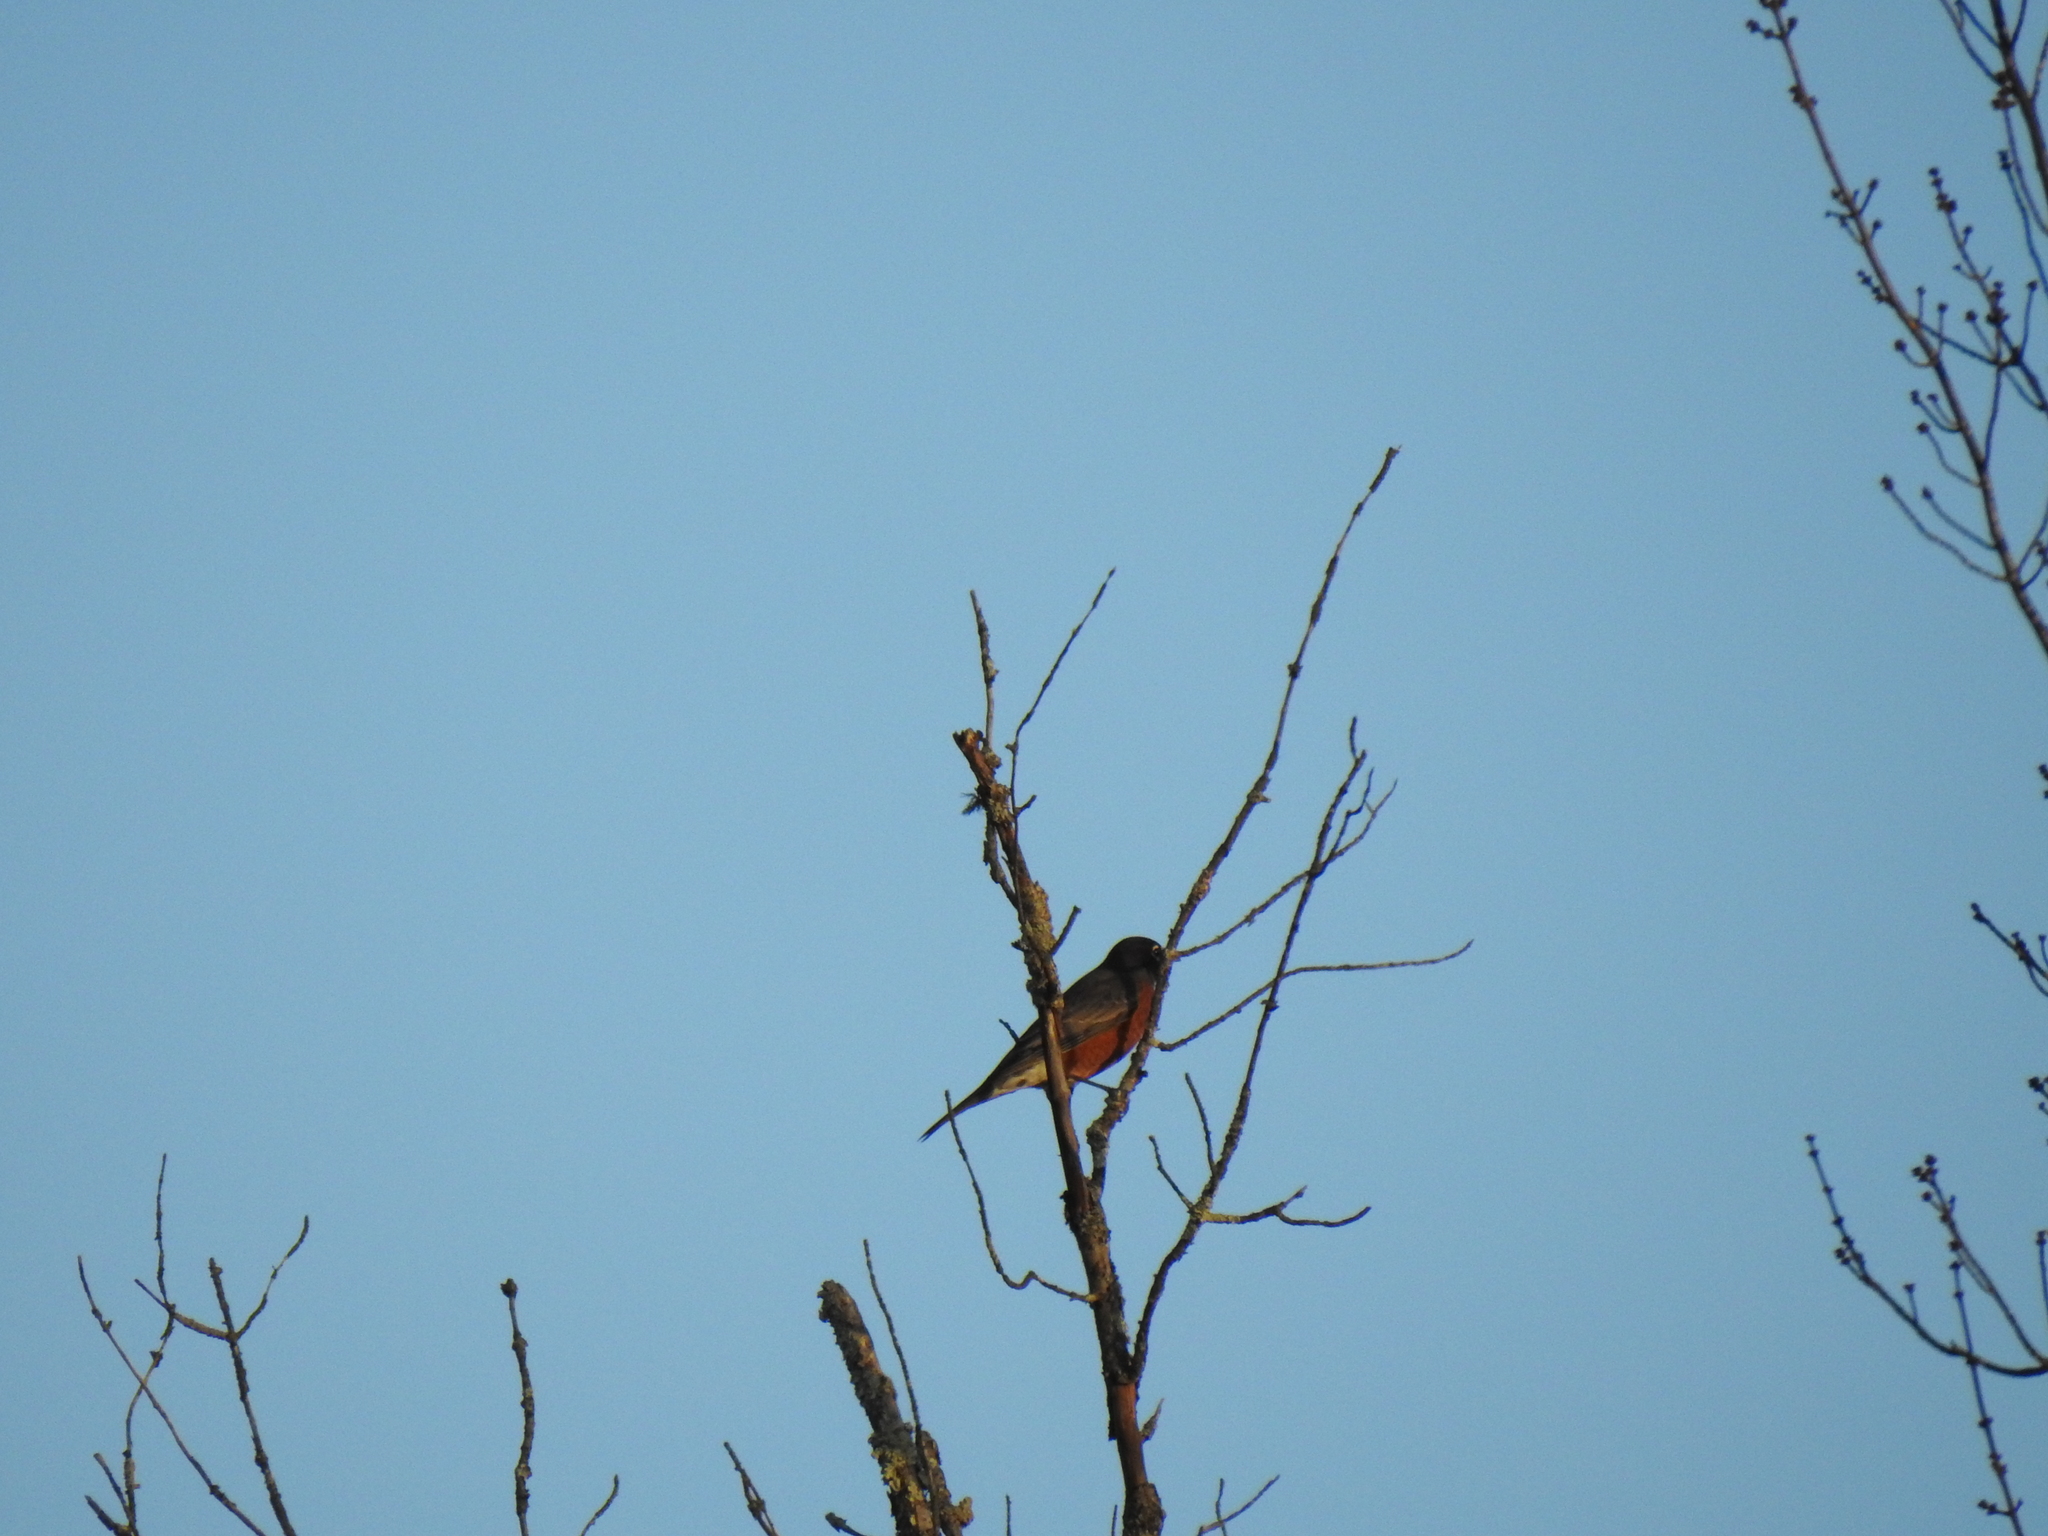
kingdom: Animalia
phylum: Chordata
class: Aves
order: Passeriformes
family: Turdidae
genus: Turdus
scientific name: Turdus migratorius
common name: American robin
